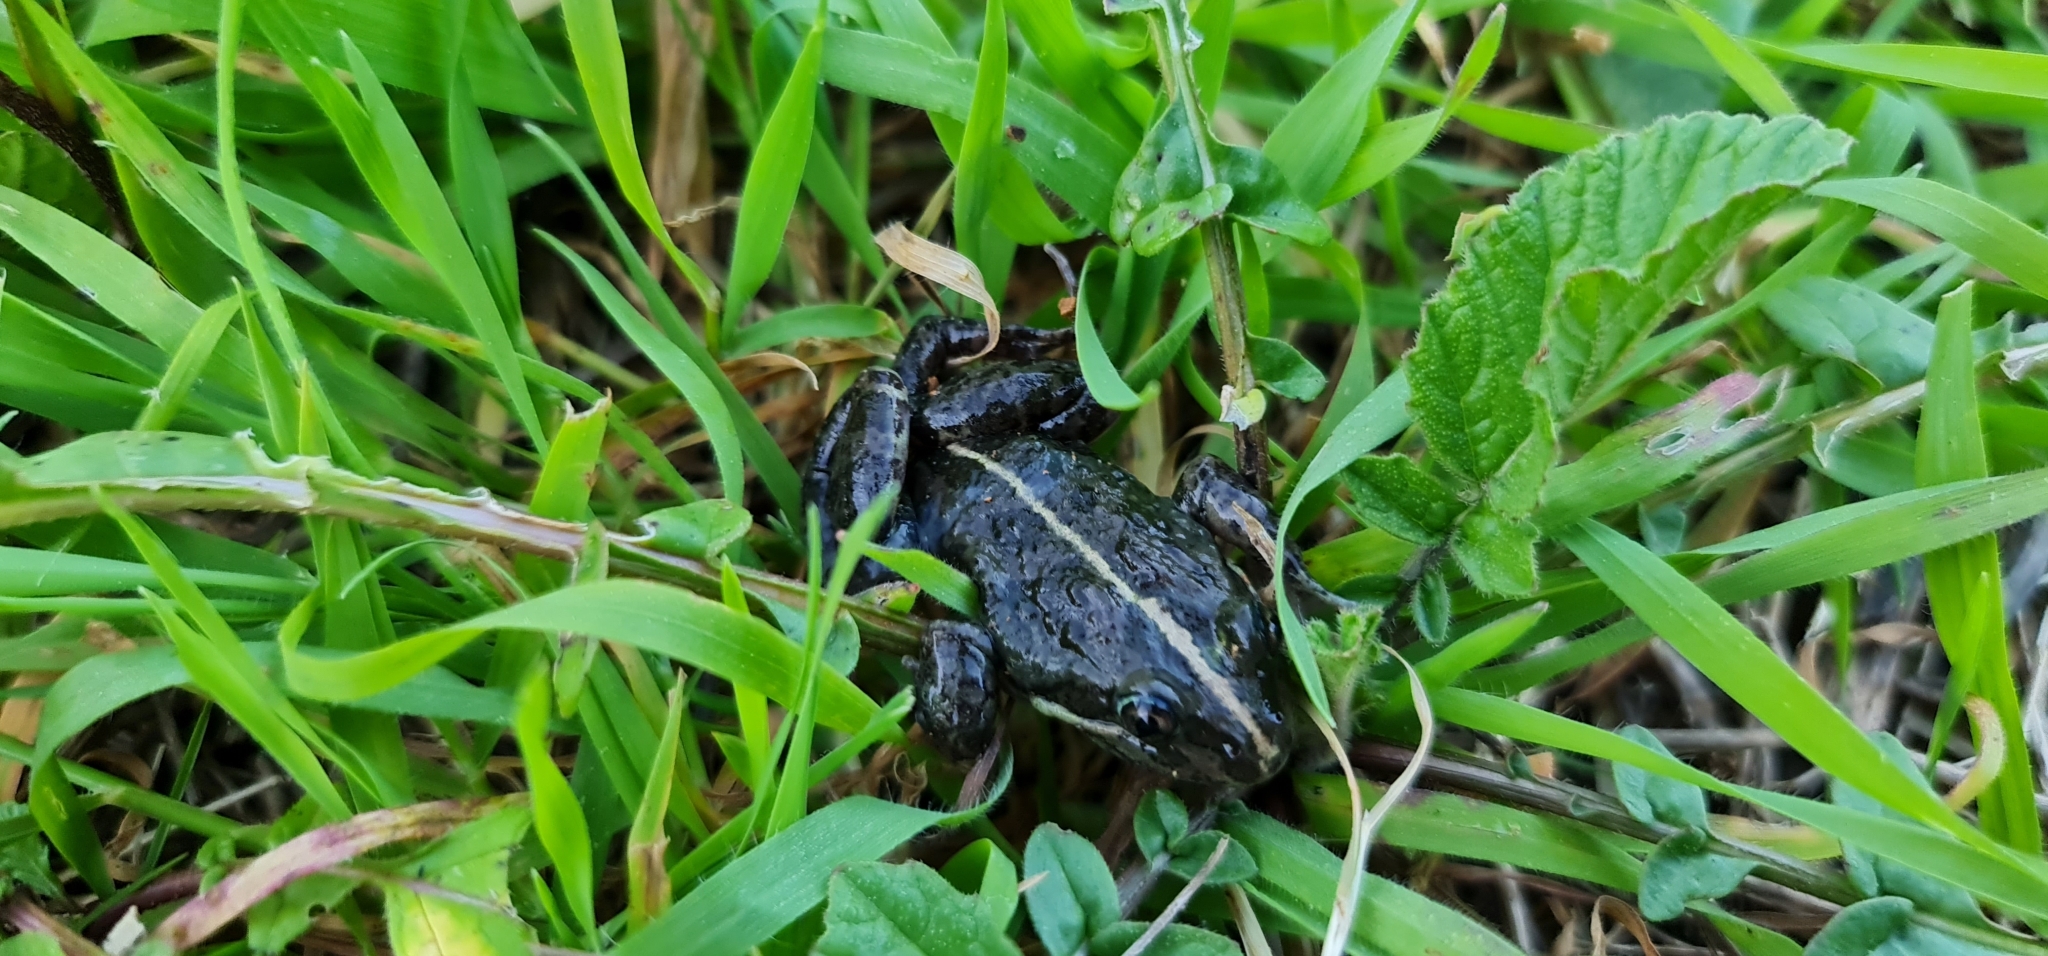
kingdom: Animalia
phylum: Chordata
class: Amphibia
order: Anura
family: Limnodynastidae
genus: Limnodynastes
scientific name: Limnodynastes tasmaniensis
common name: Spotted marsh frog
